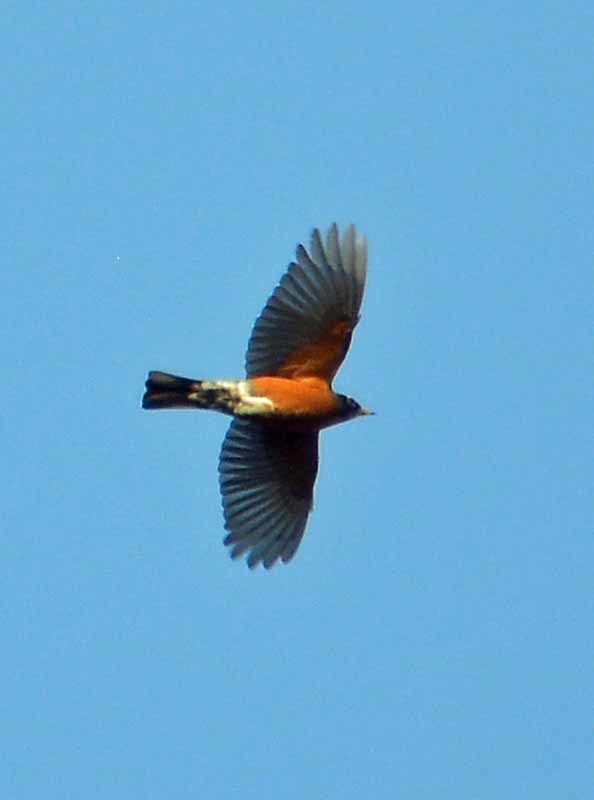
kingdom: Animalia
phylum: Chordata
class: Aves
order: Passeriformes
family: Turdidae
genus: Turdus
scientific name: Turdus migratorius
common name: American robin
